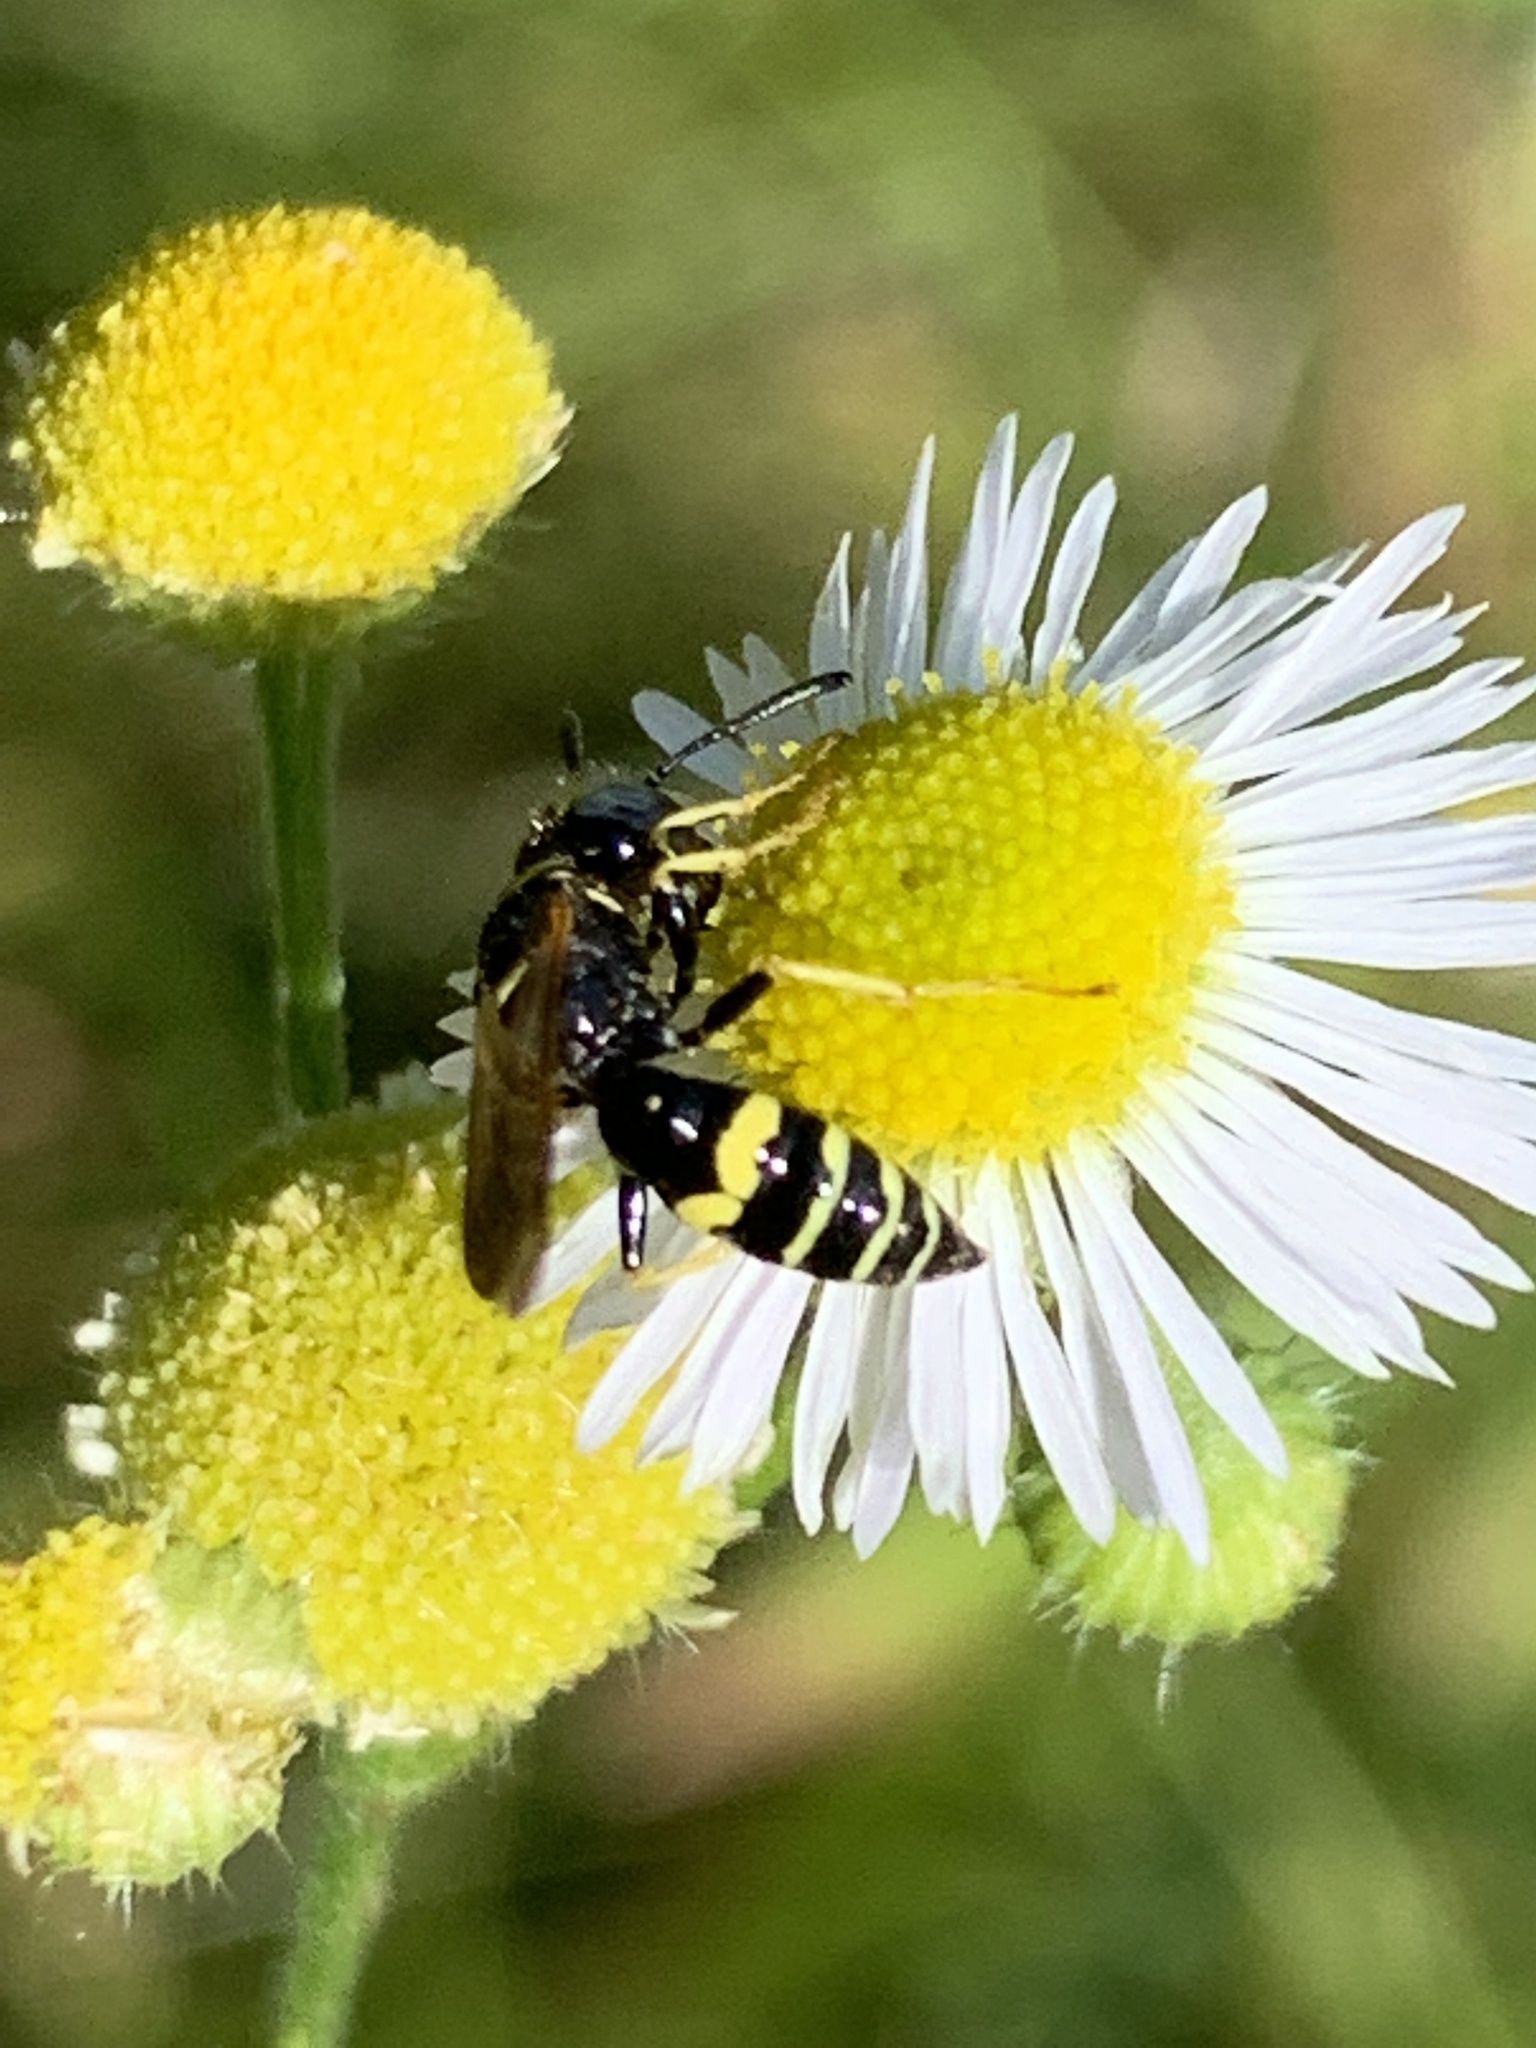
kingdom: Animalia
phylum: Arthropoda
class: Insecta
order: Hymenoptera
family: Crabronidae
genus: Philanthus
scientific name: Philanthus bilunatus
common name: Two moons beewolf
